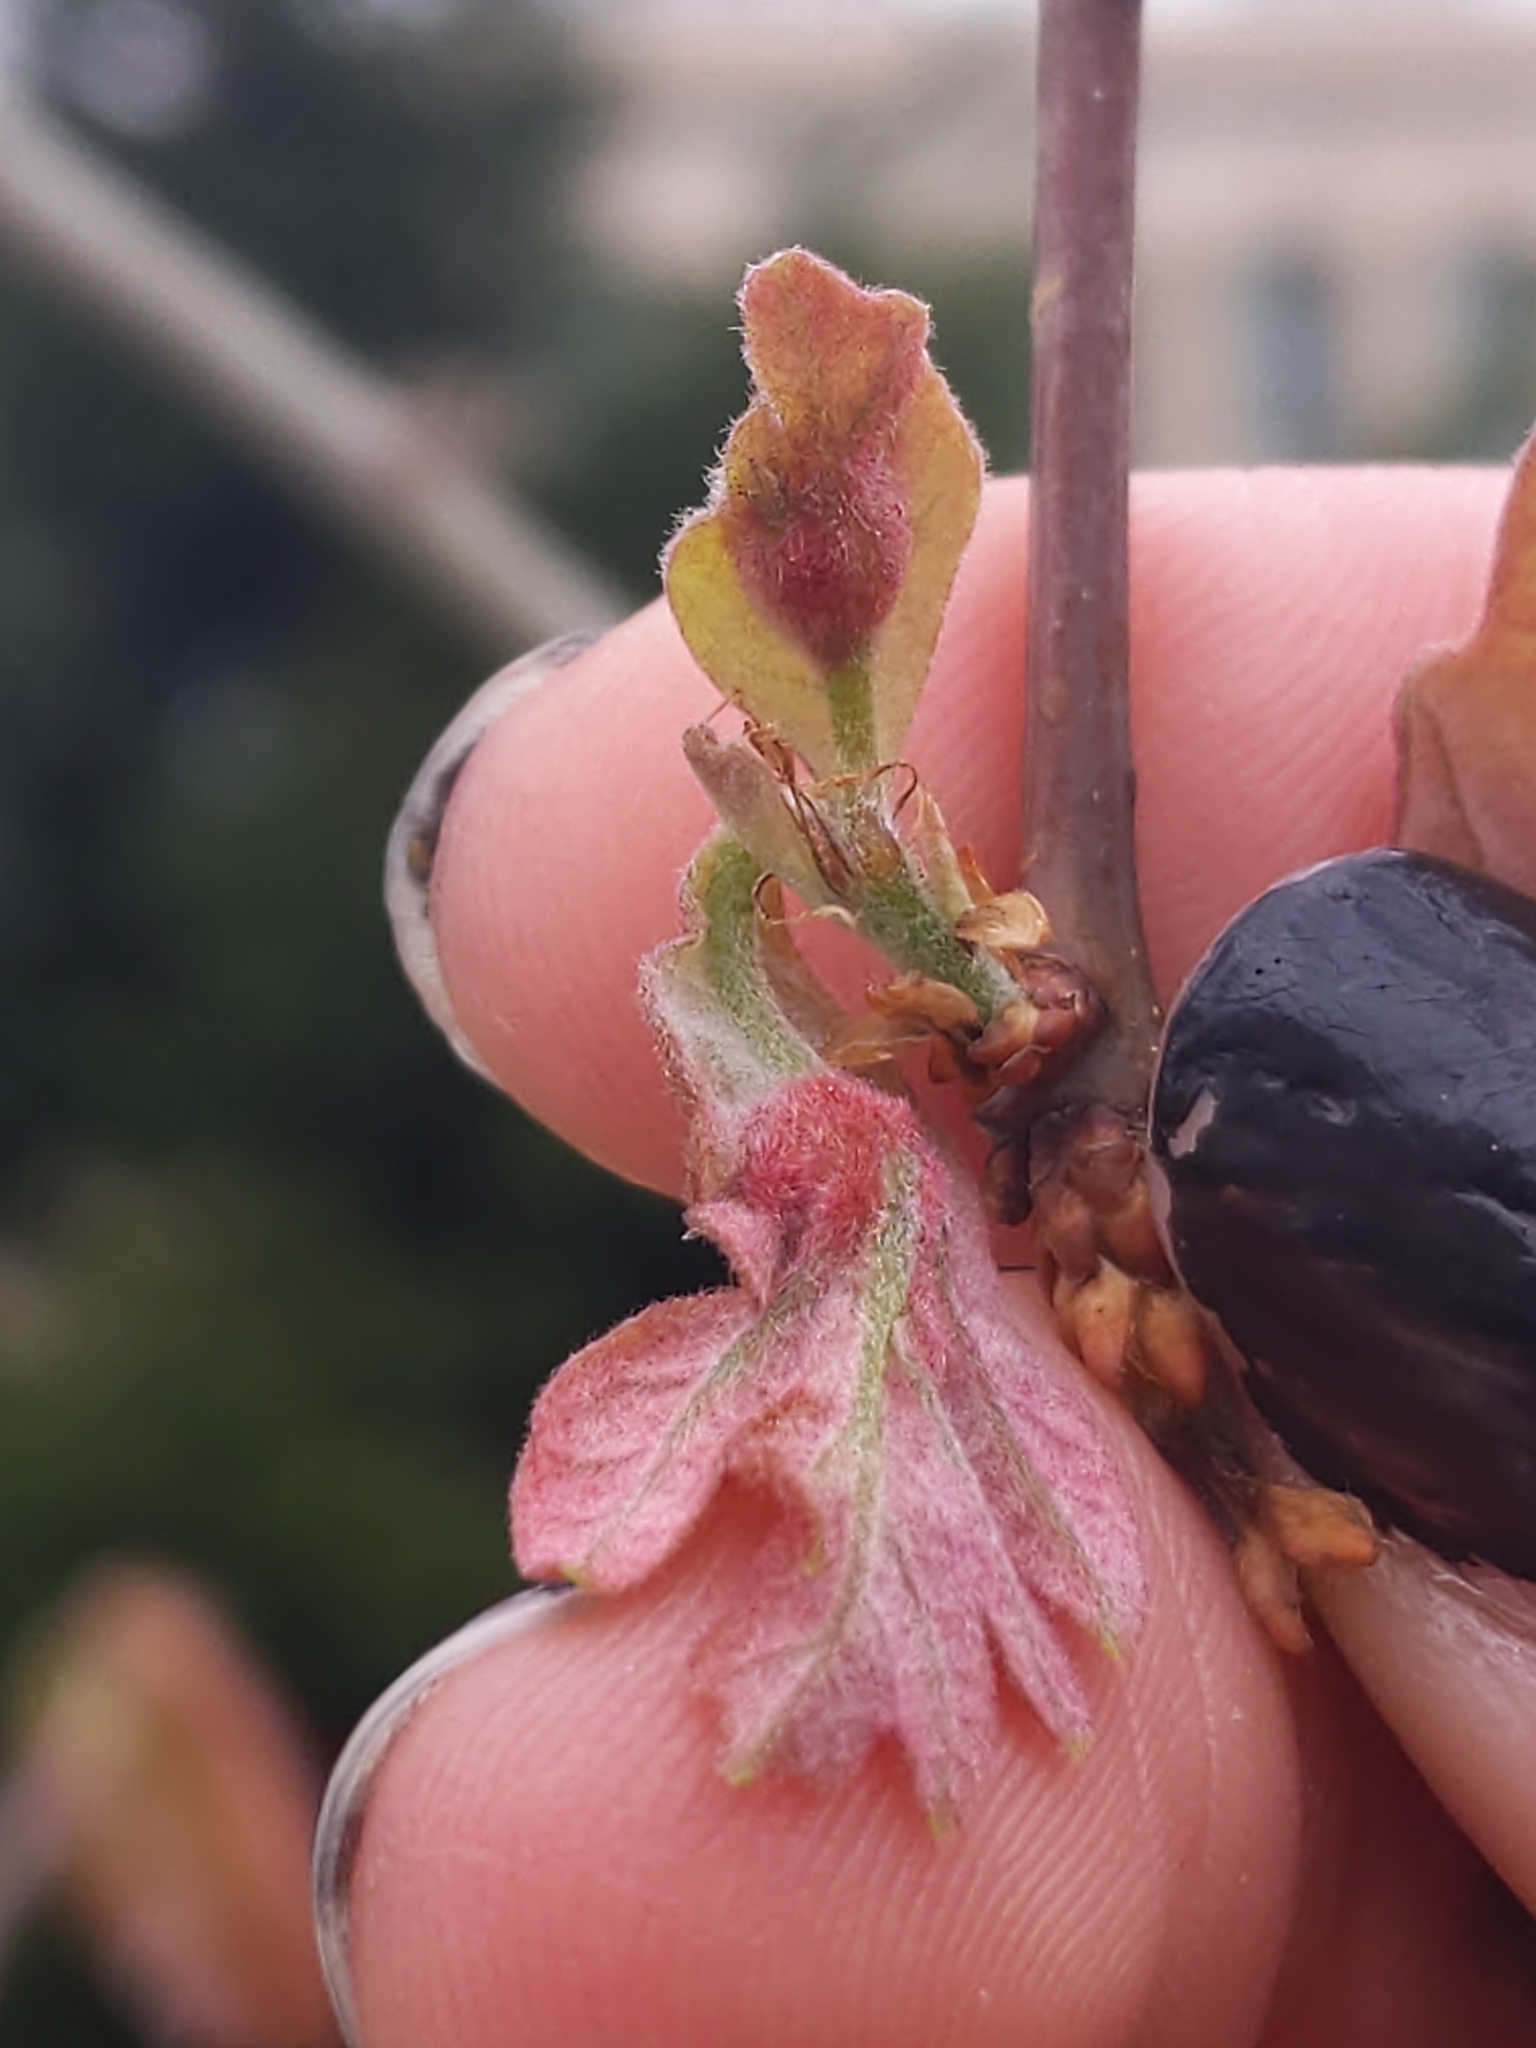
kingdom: Animalia
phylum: Arthropoda
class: Insecta
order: Hymenoptera
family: Cynipidae
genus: Andricus
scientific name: Andricus
